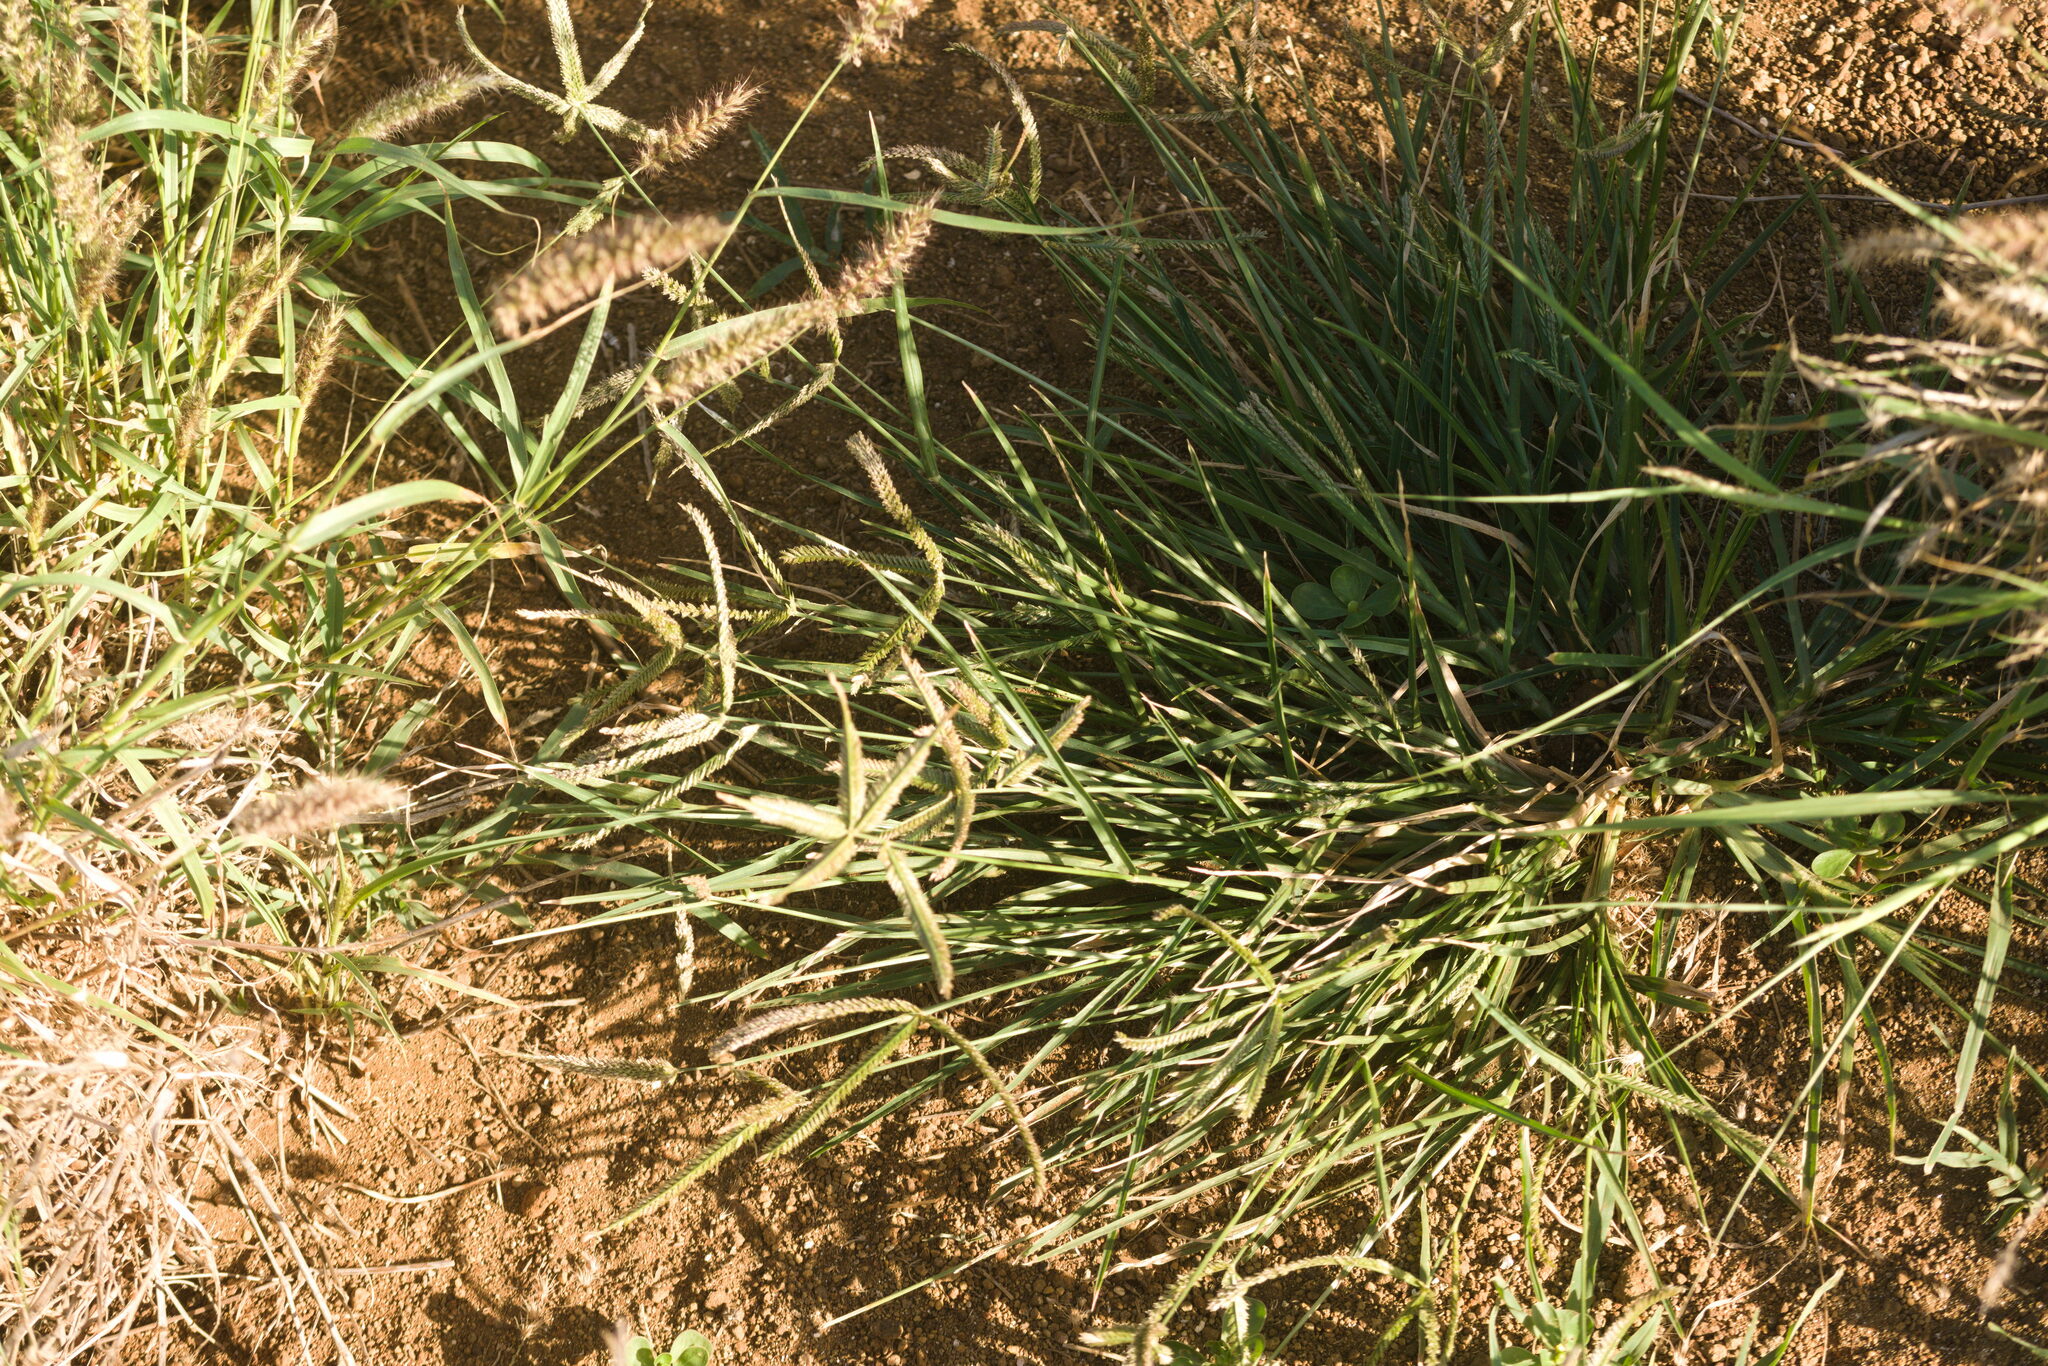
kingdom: Plantae
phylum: Tracheophyta
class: Liliopsida
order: Poales
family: Poaceae
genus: Eleusine
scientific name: Eleusine indica
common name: Yard-grass
